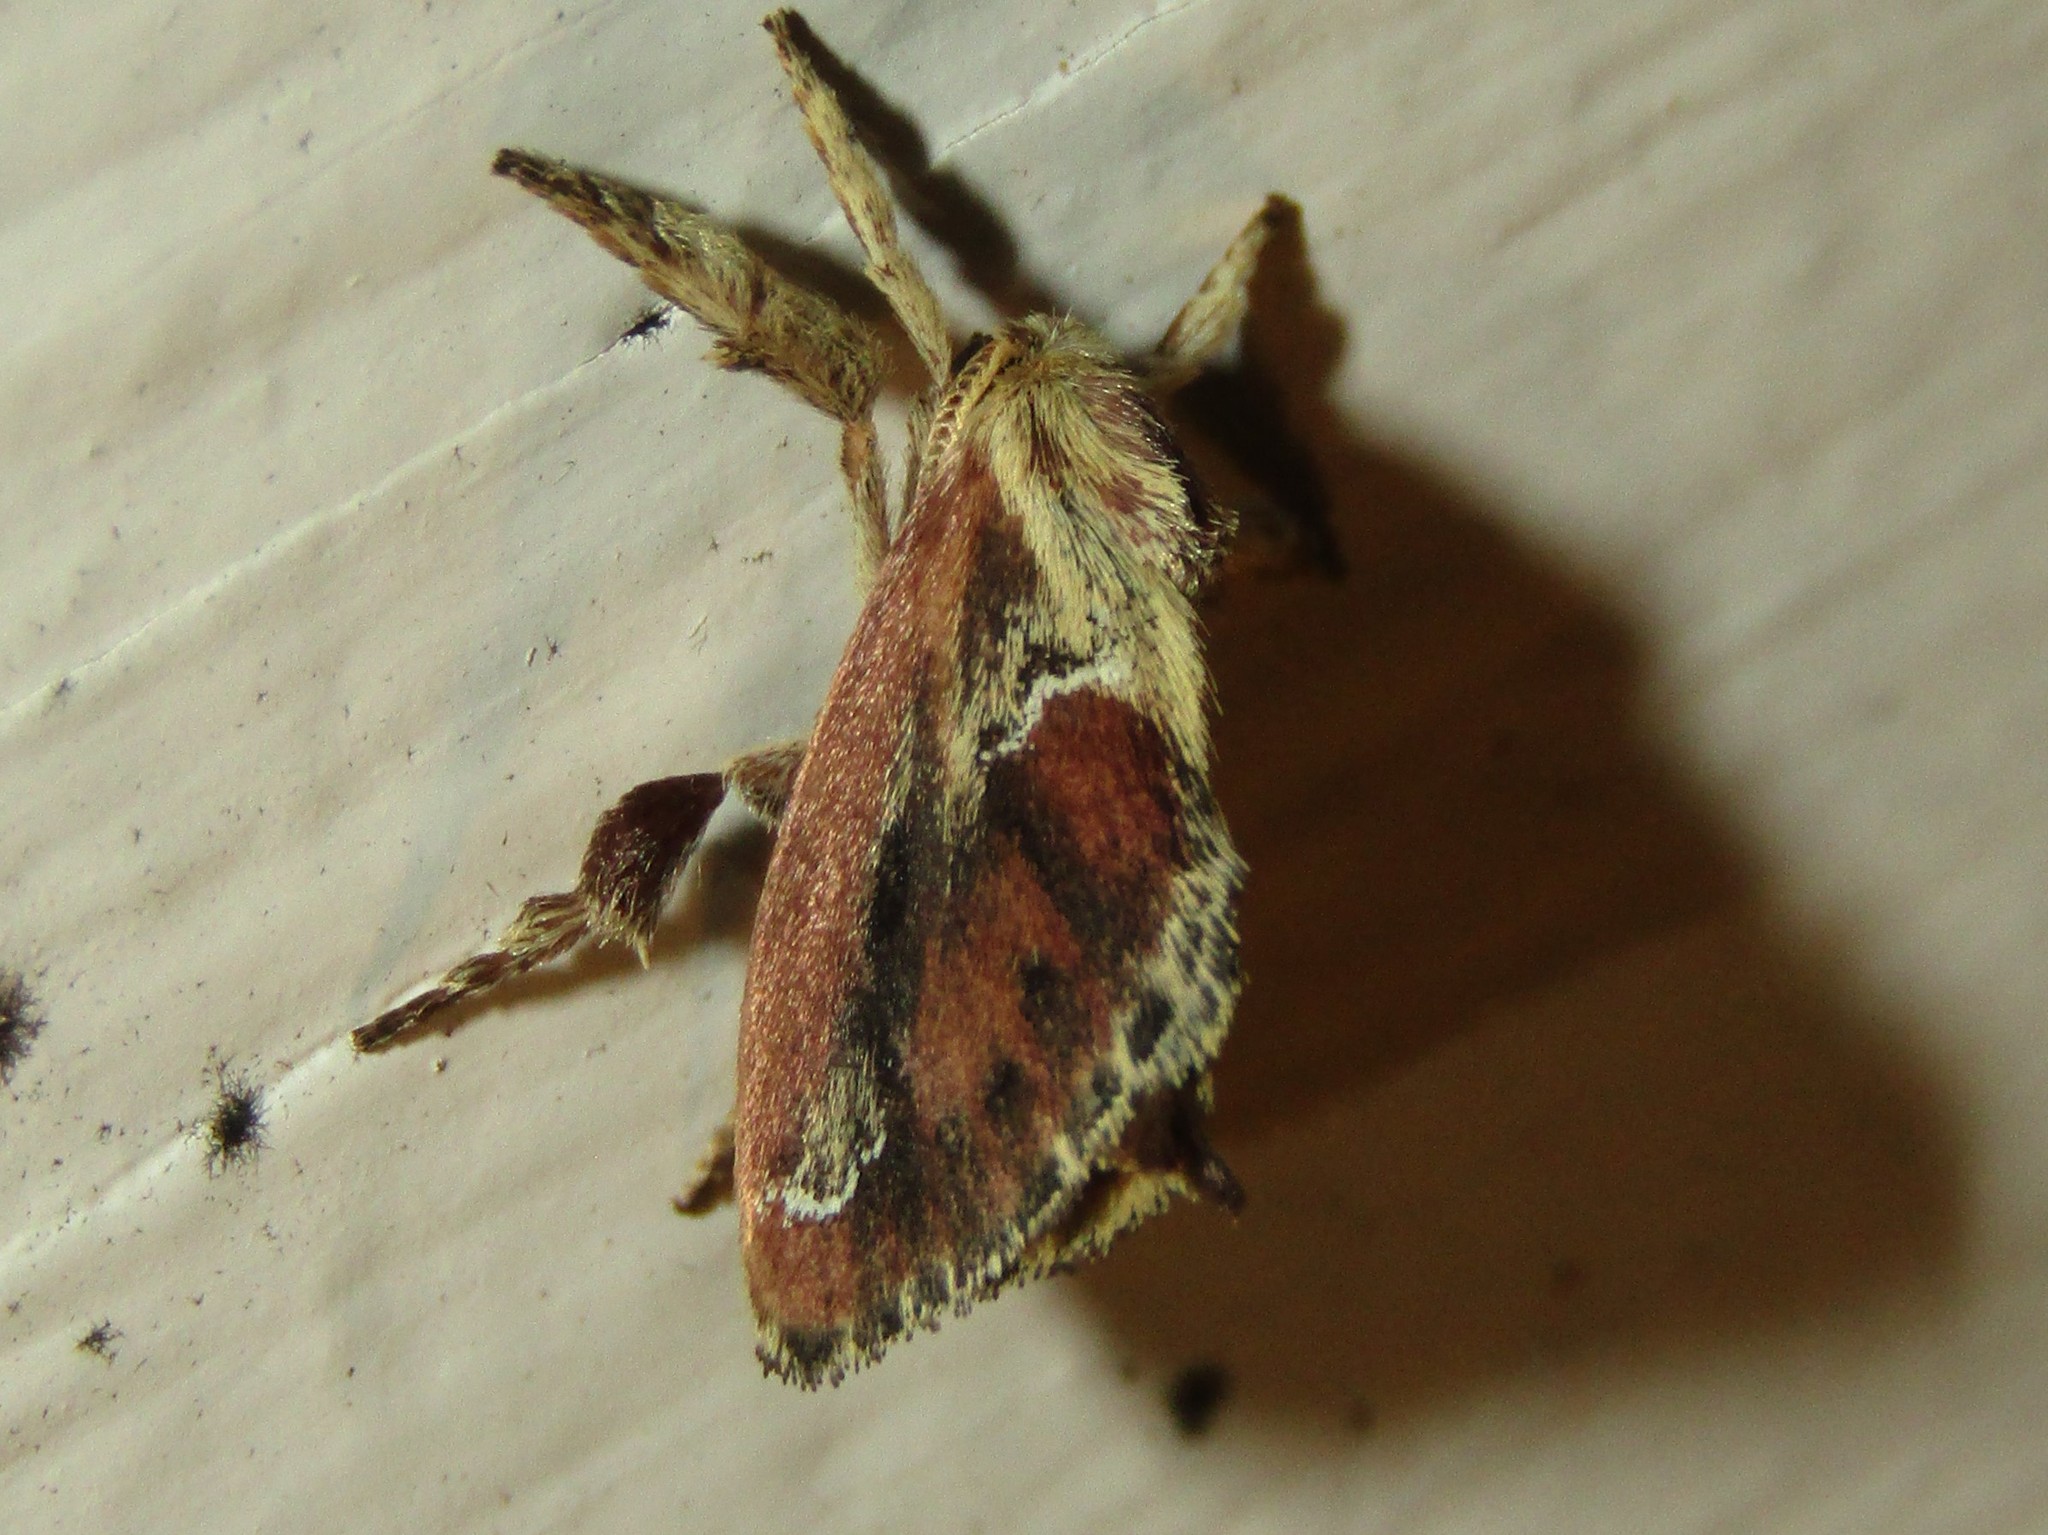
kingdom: Animalia
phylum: Arthropoda
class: Insecta
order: Lepidoptera
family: Limacodidae
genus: Adoneta
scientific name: Adoneta spinuloides
